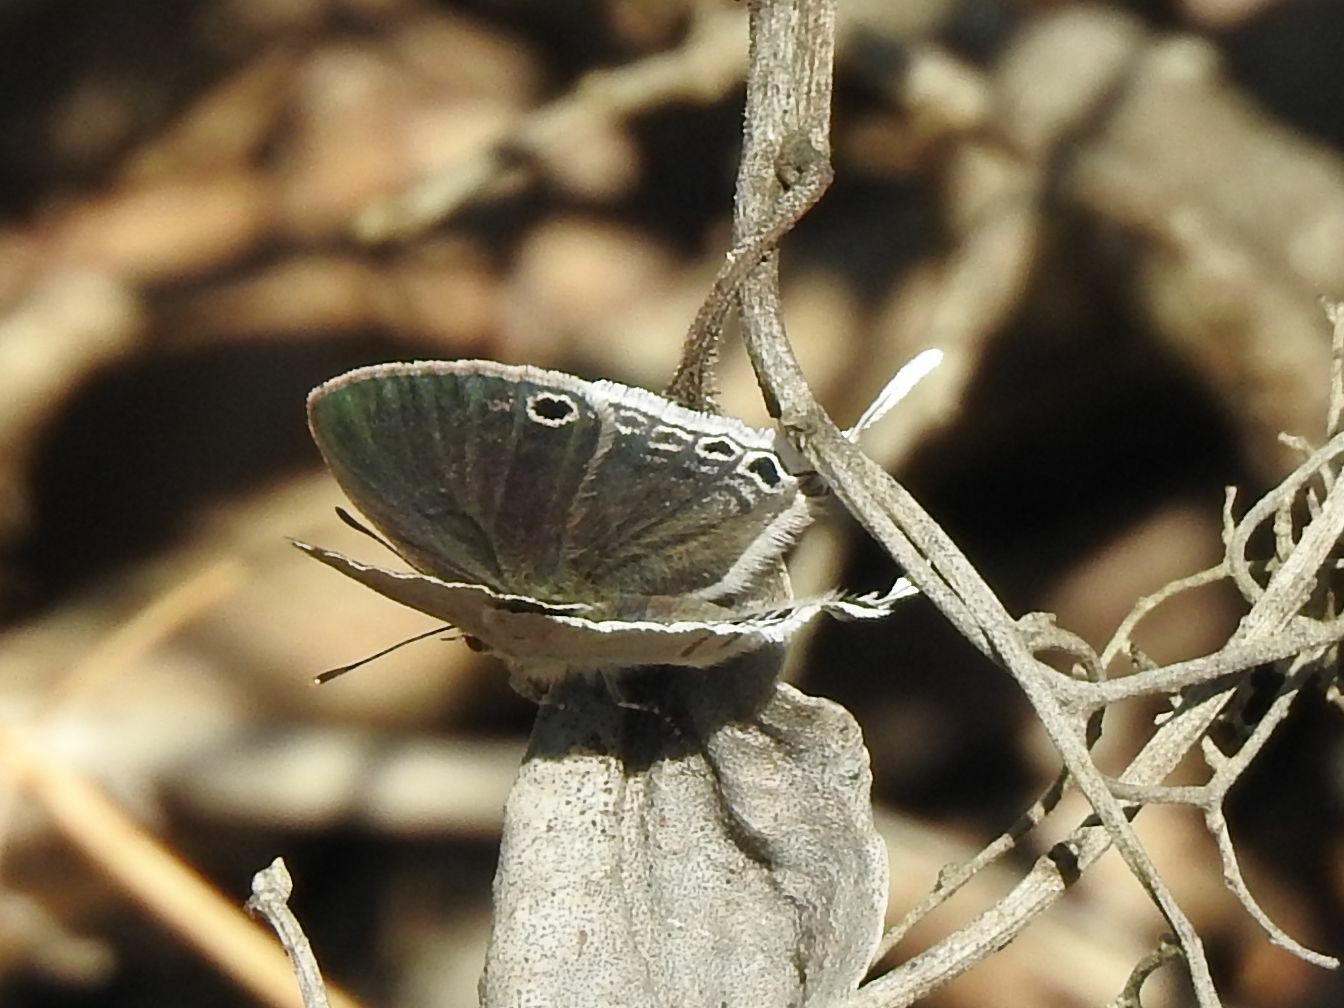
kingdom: Animalia
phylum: Arthropoda
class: Insecta
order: Lepidoptera
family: Lycaenidae
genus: Leptomyrina
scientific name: Leptomyrina hirundo
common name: Tailed black-eye
